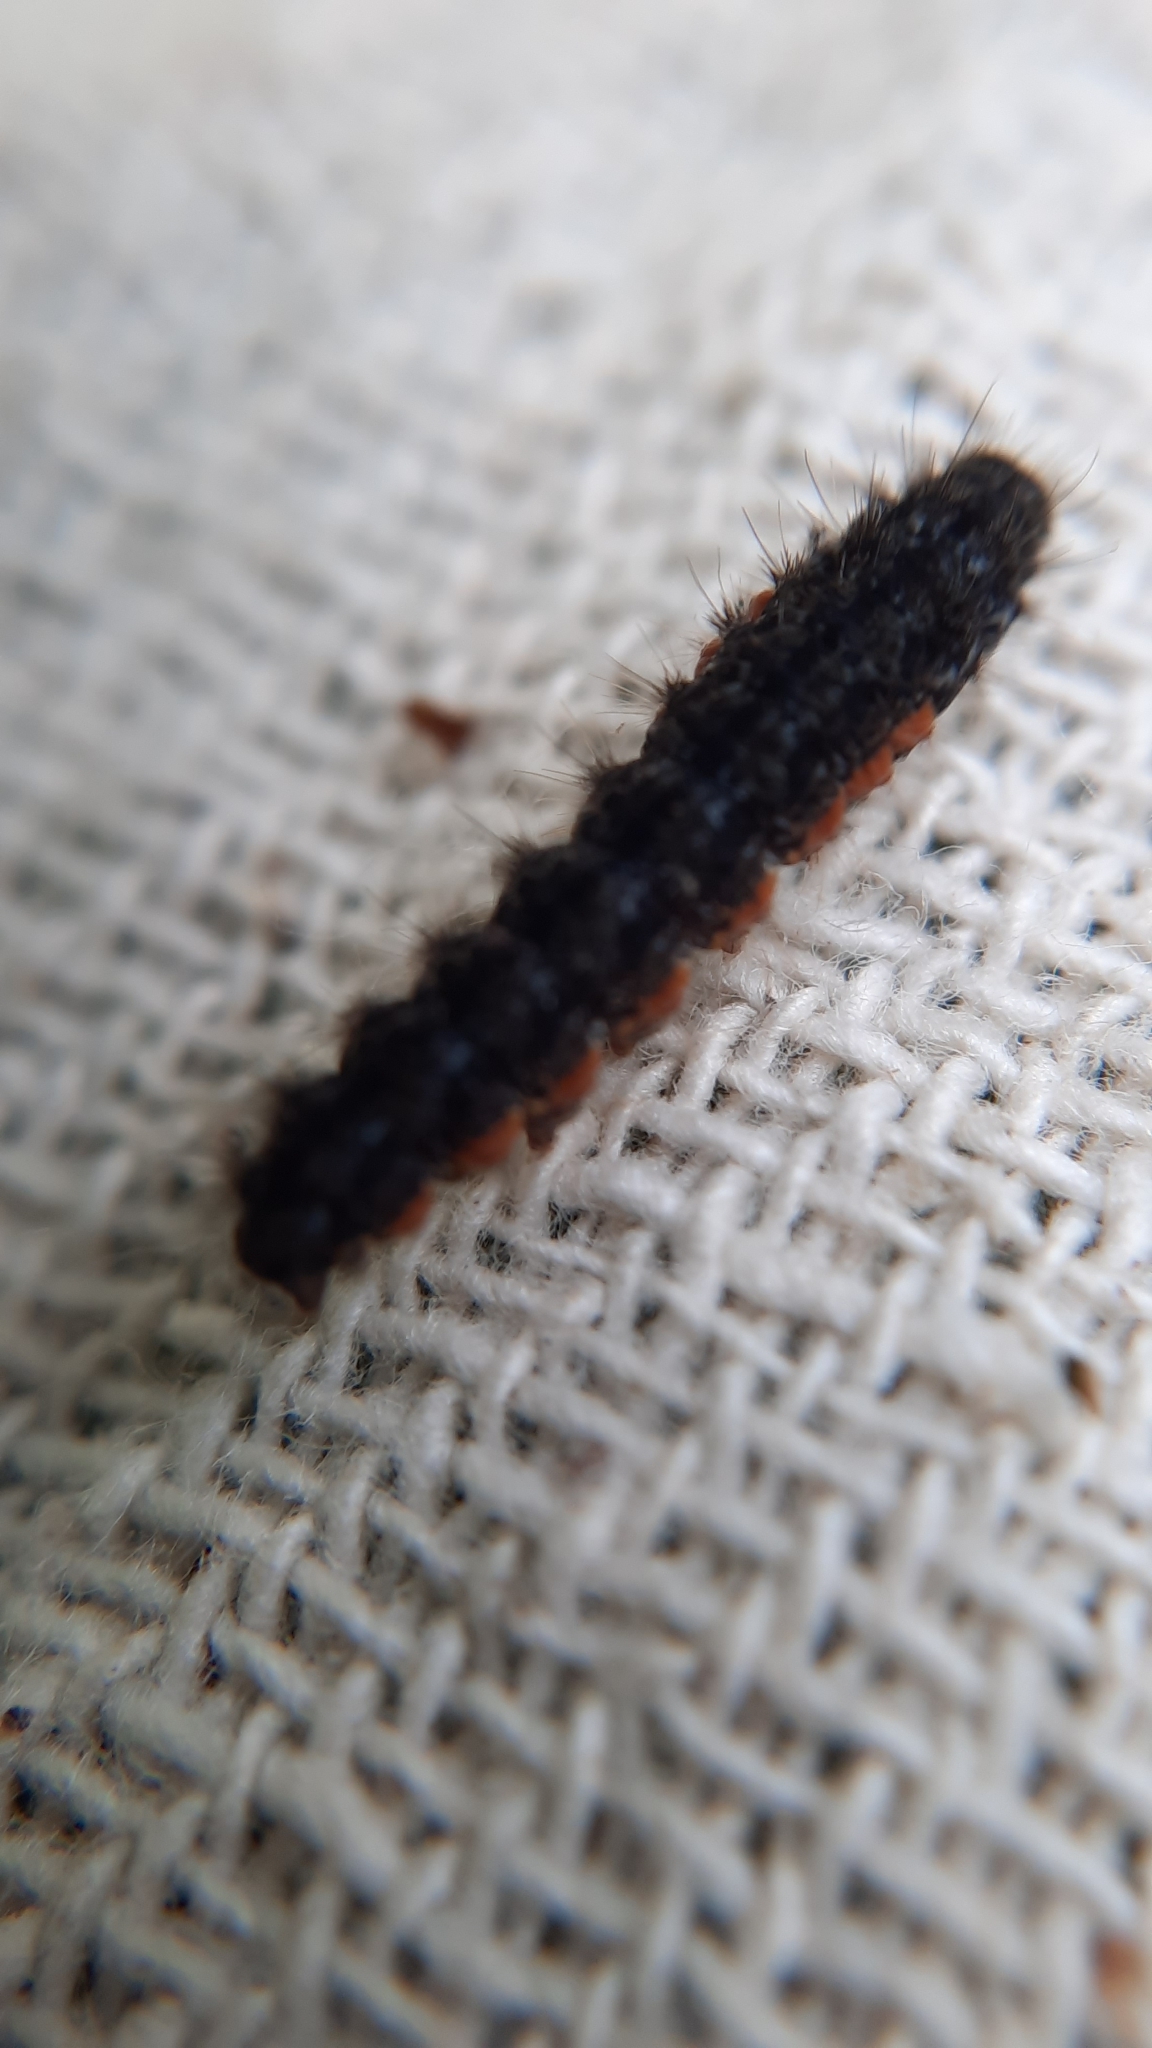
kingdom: Animalia
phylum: Arthropoda
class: Insecta
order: Lepidoptera
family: Erebidae
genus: Nyea
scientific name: Nyea lurideola
